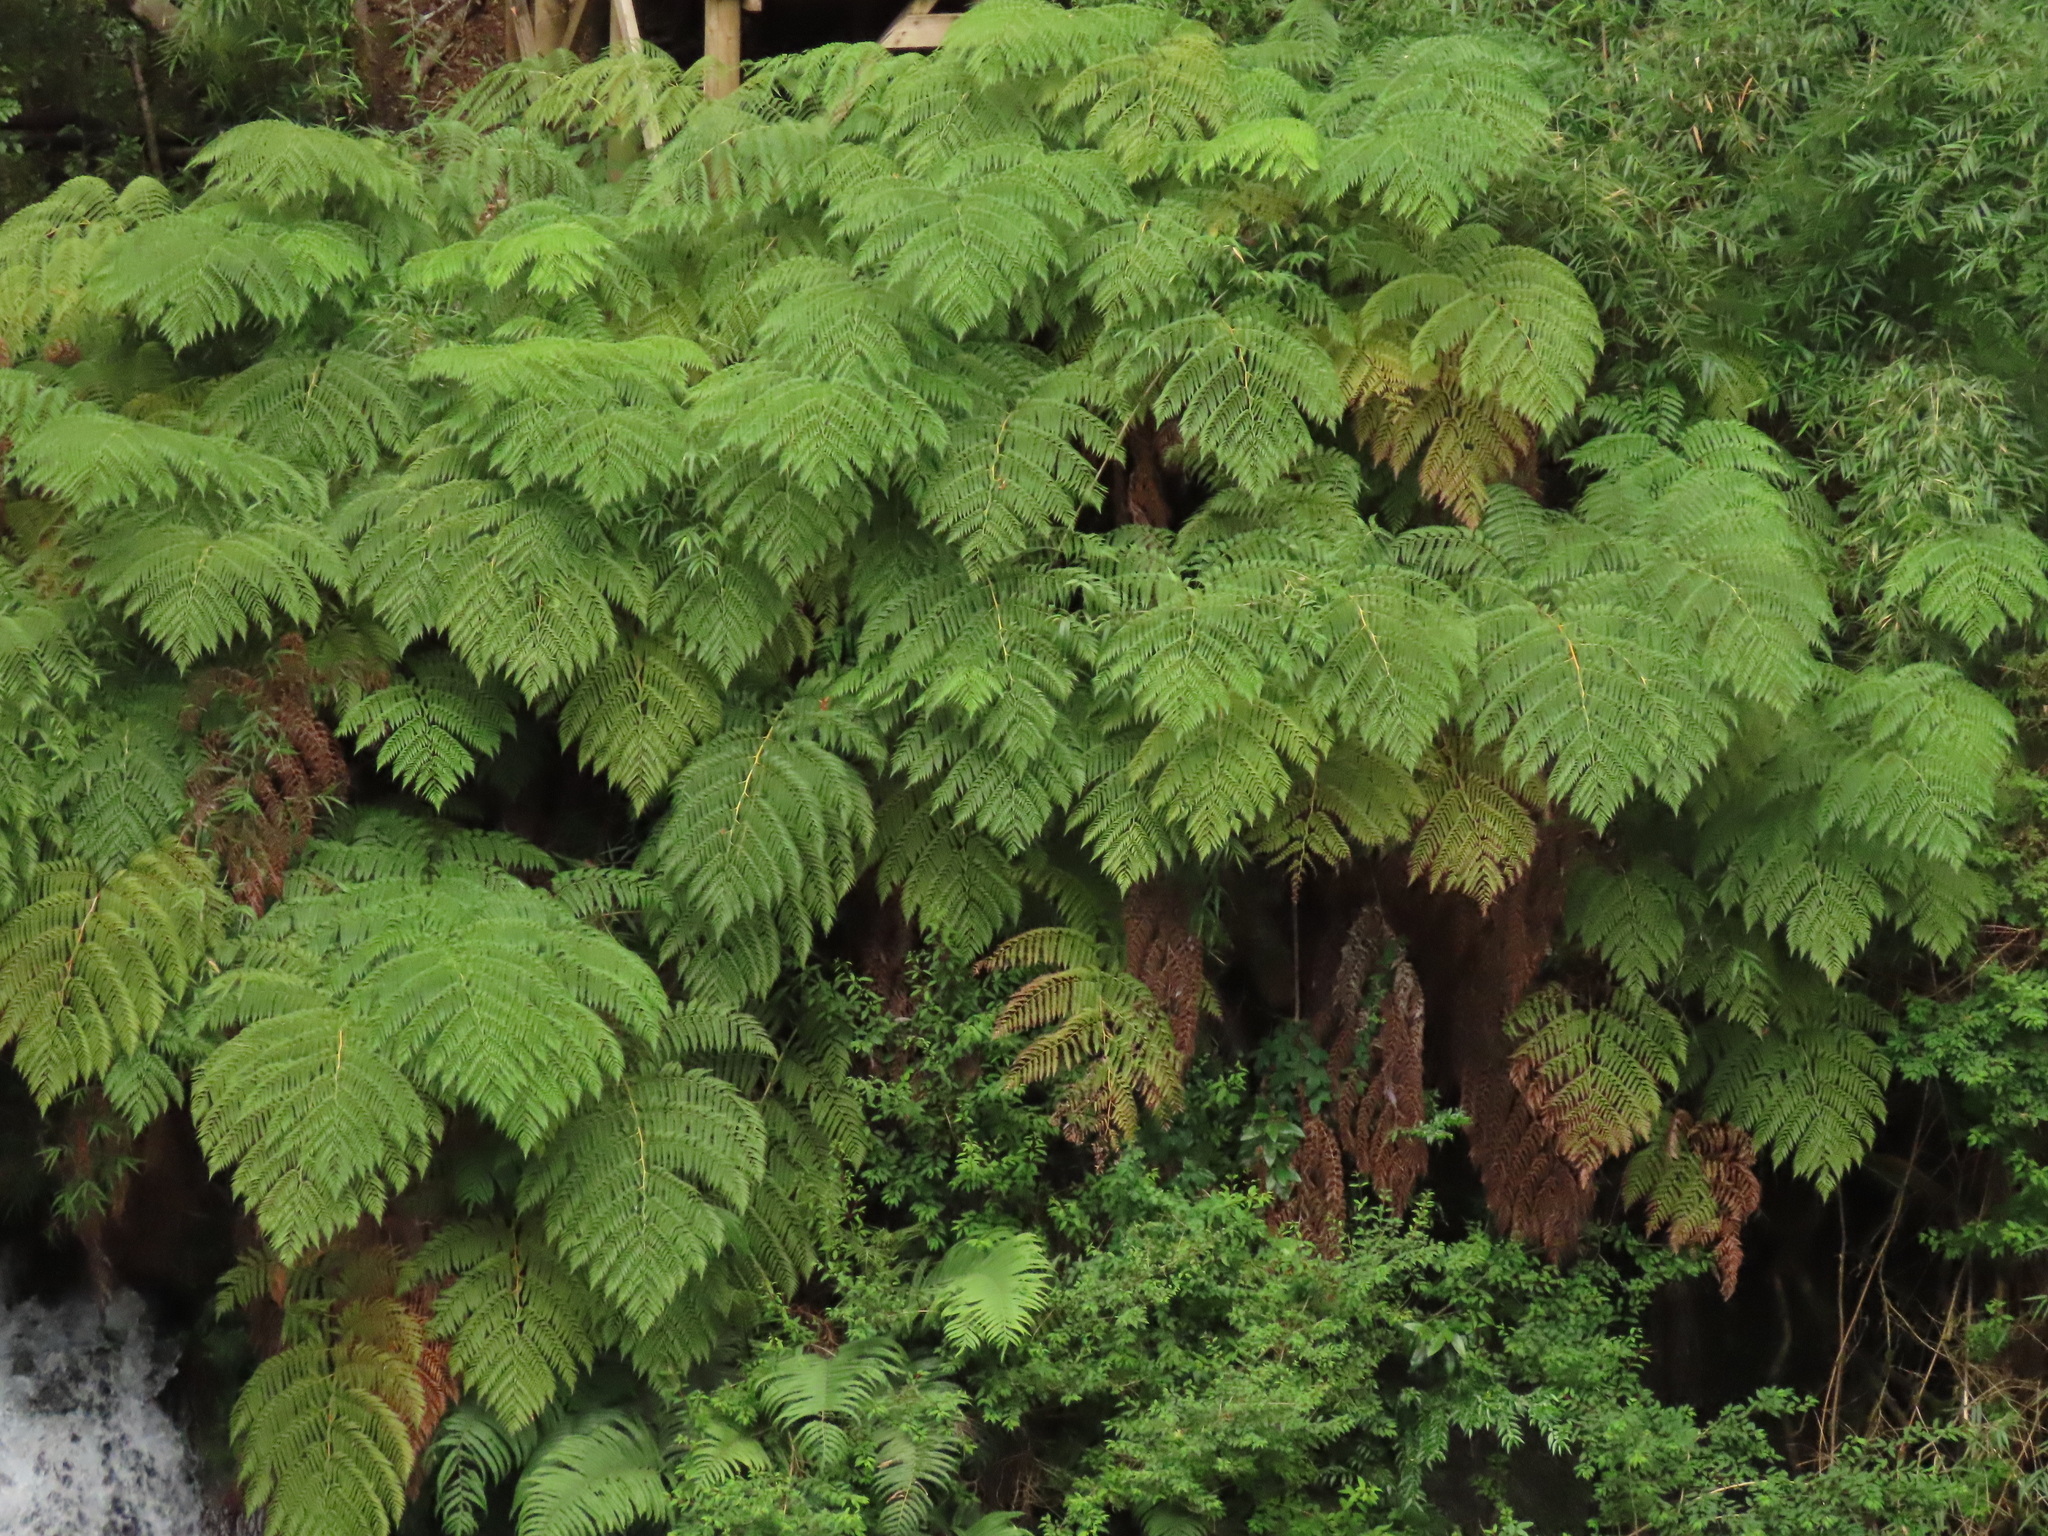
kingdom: Plantae
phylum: Tracheophyta
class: Polypodiopsida
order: Cyatheales
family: Dicksoniaceae
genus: Lophosoria
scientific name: Lophosoria quadripinnata
